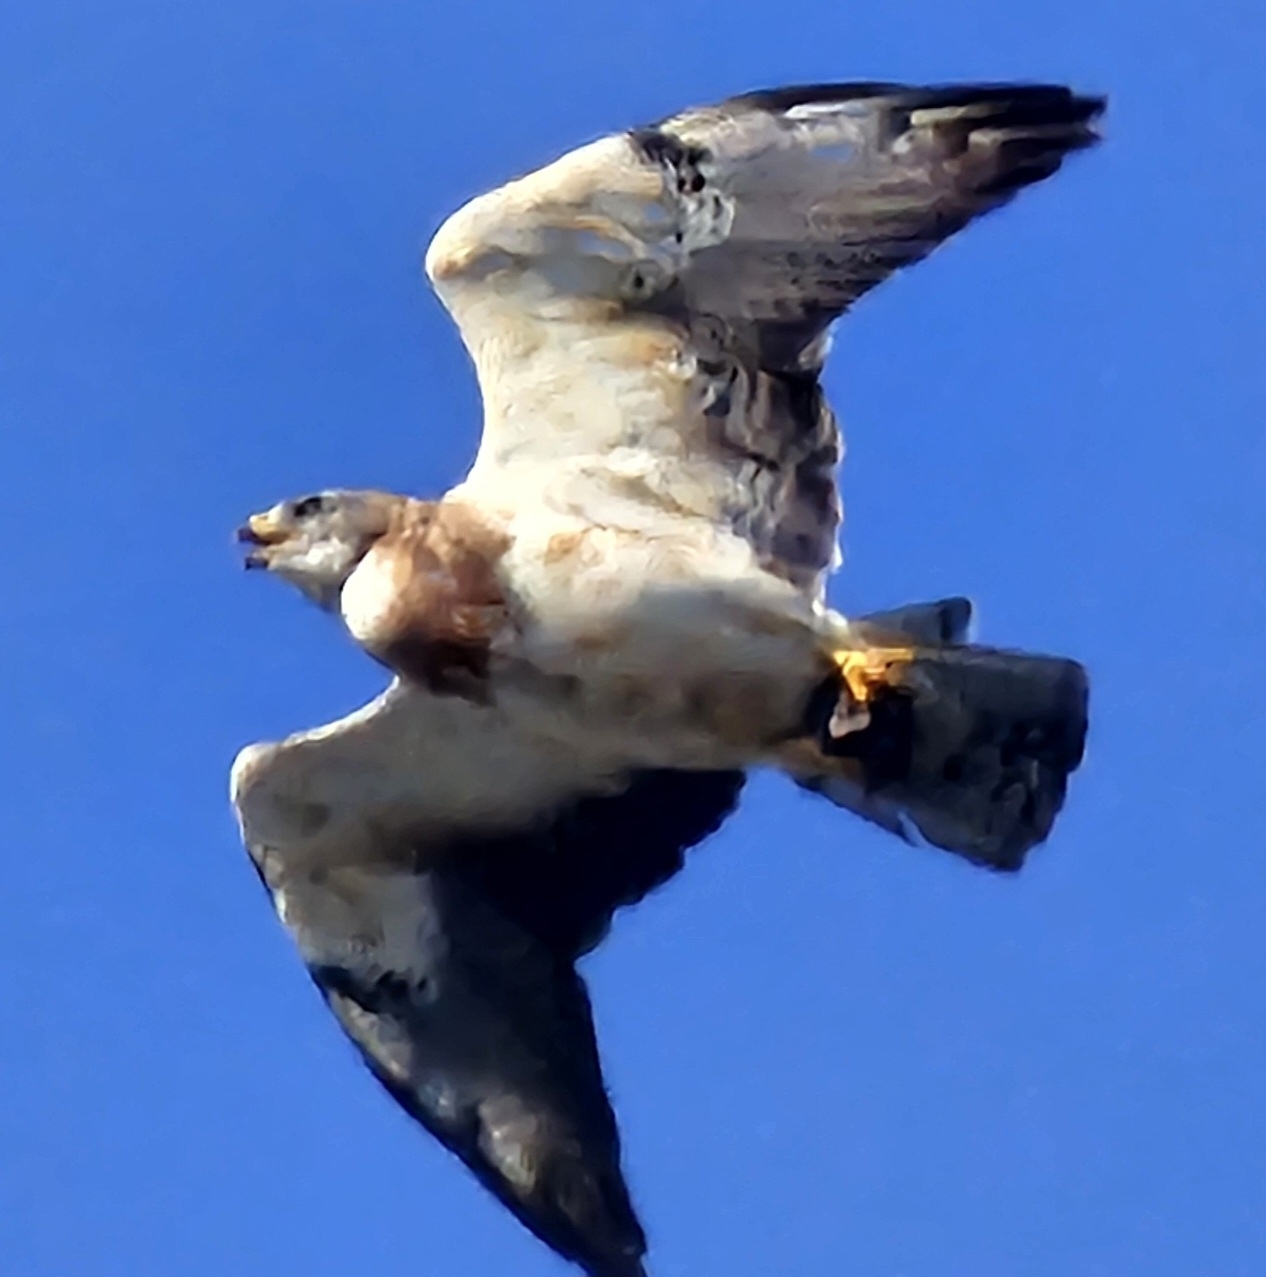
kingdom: Animalia
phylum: Chordata
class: Aves
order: Accipitriformes
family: Accipitridae
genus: Buteo
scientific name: Buteo swainsoni
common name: Swainson's hawk
